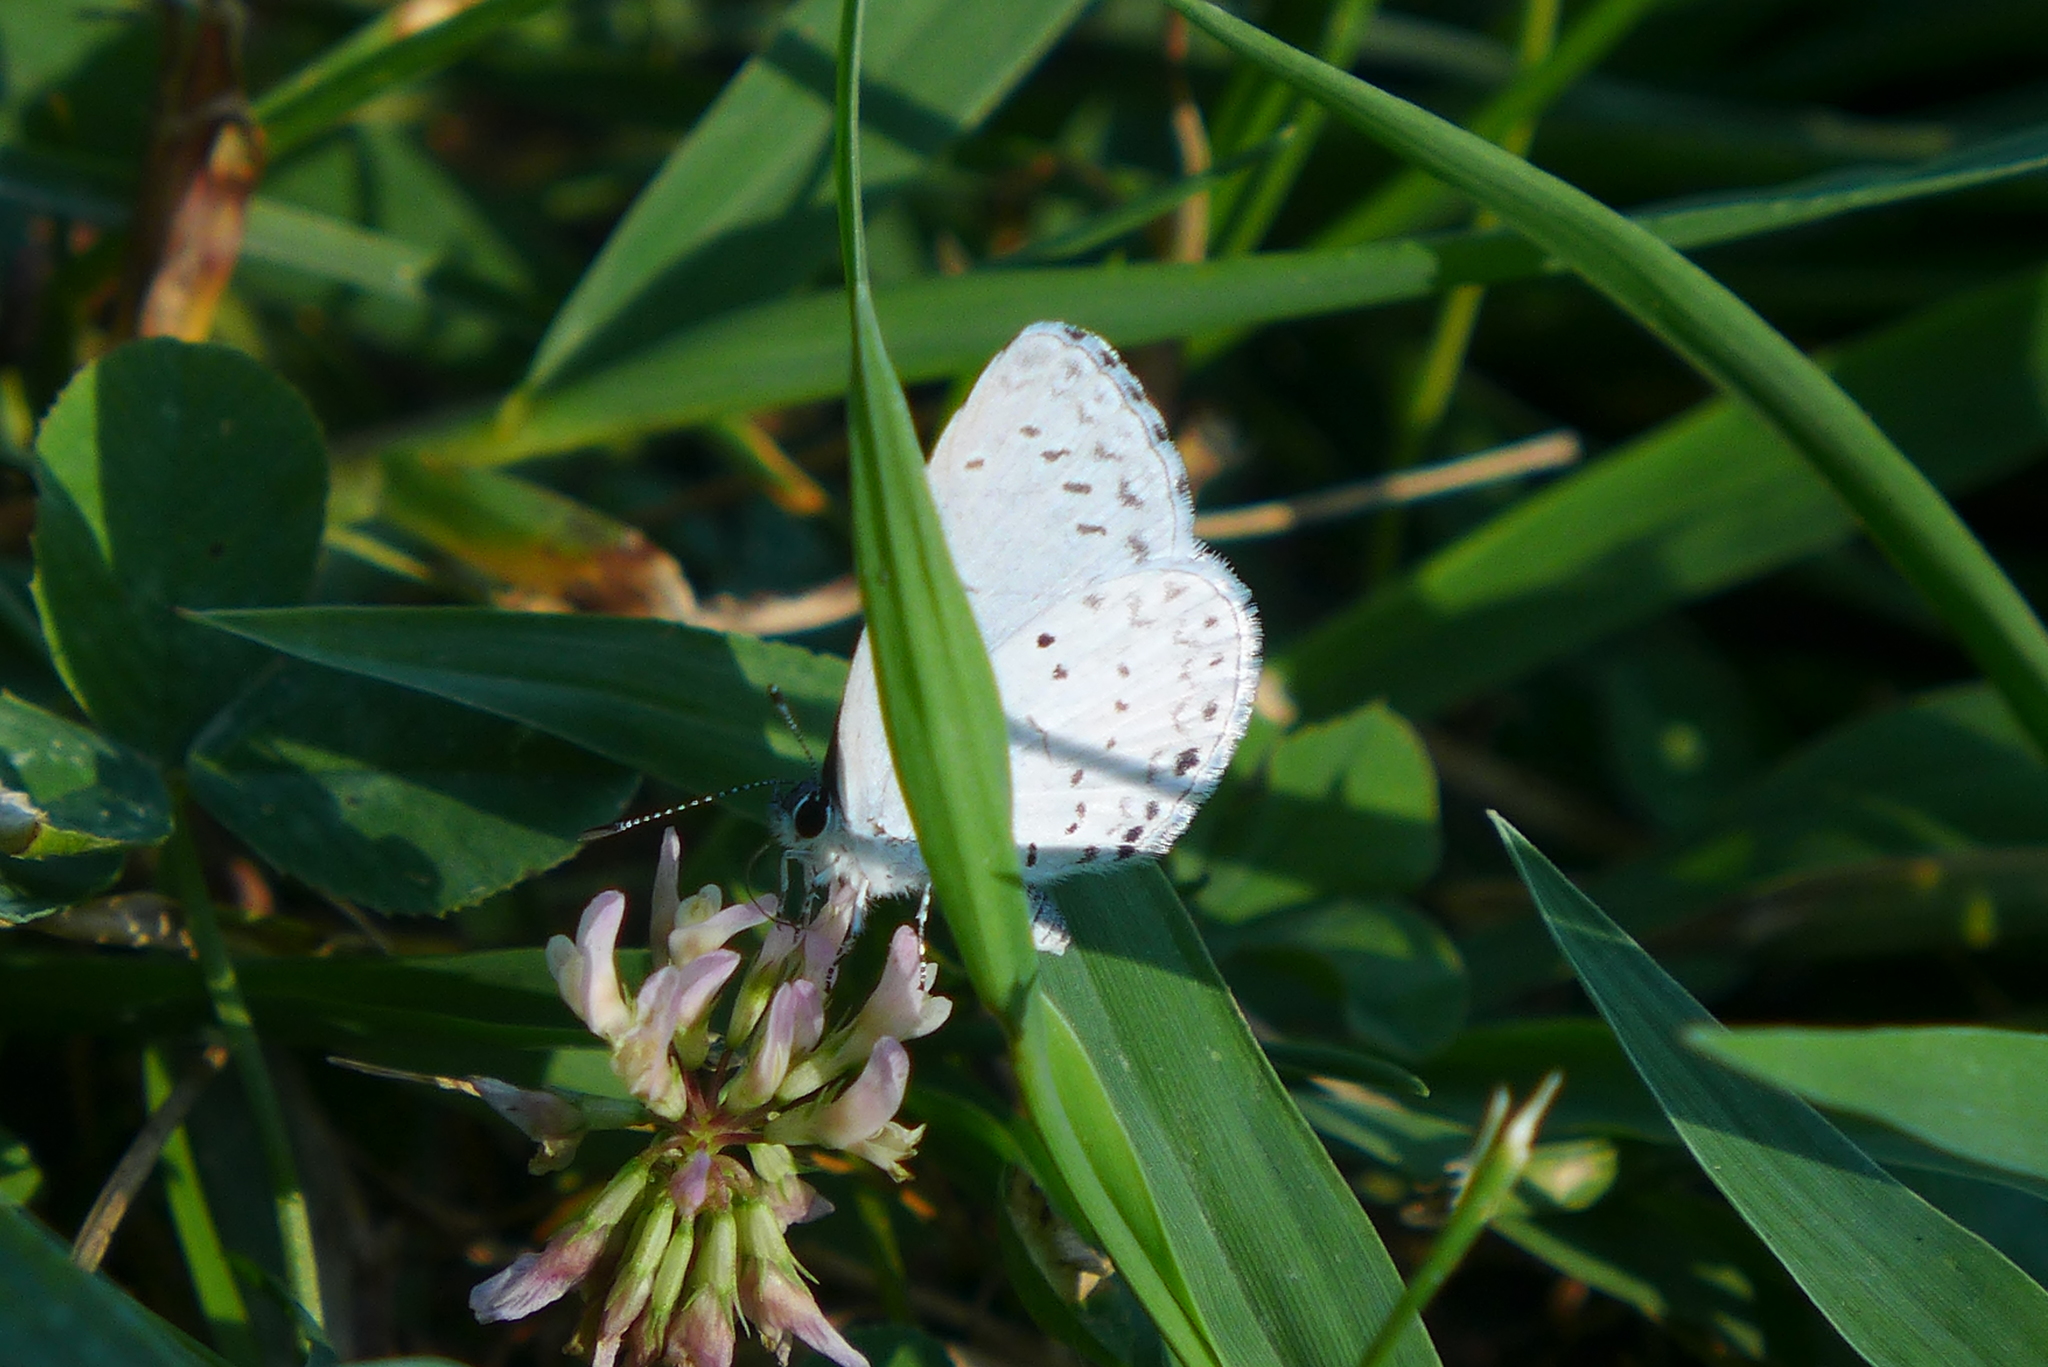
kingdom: Animalia
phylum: Arthropoda
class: Insecta
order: Lepidoptera
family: Lycaenidae
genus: Cyaniris
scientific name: Cyaniris neglecta
